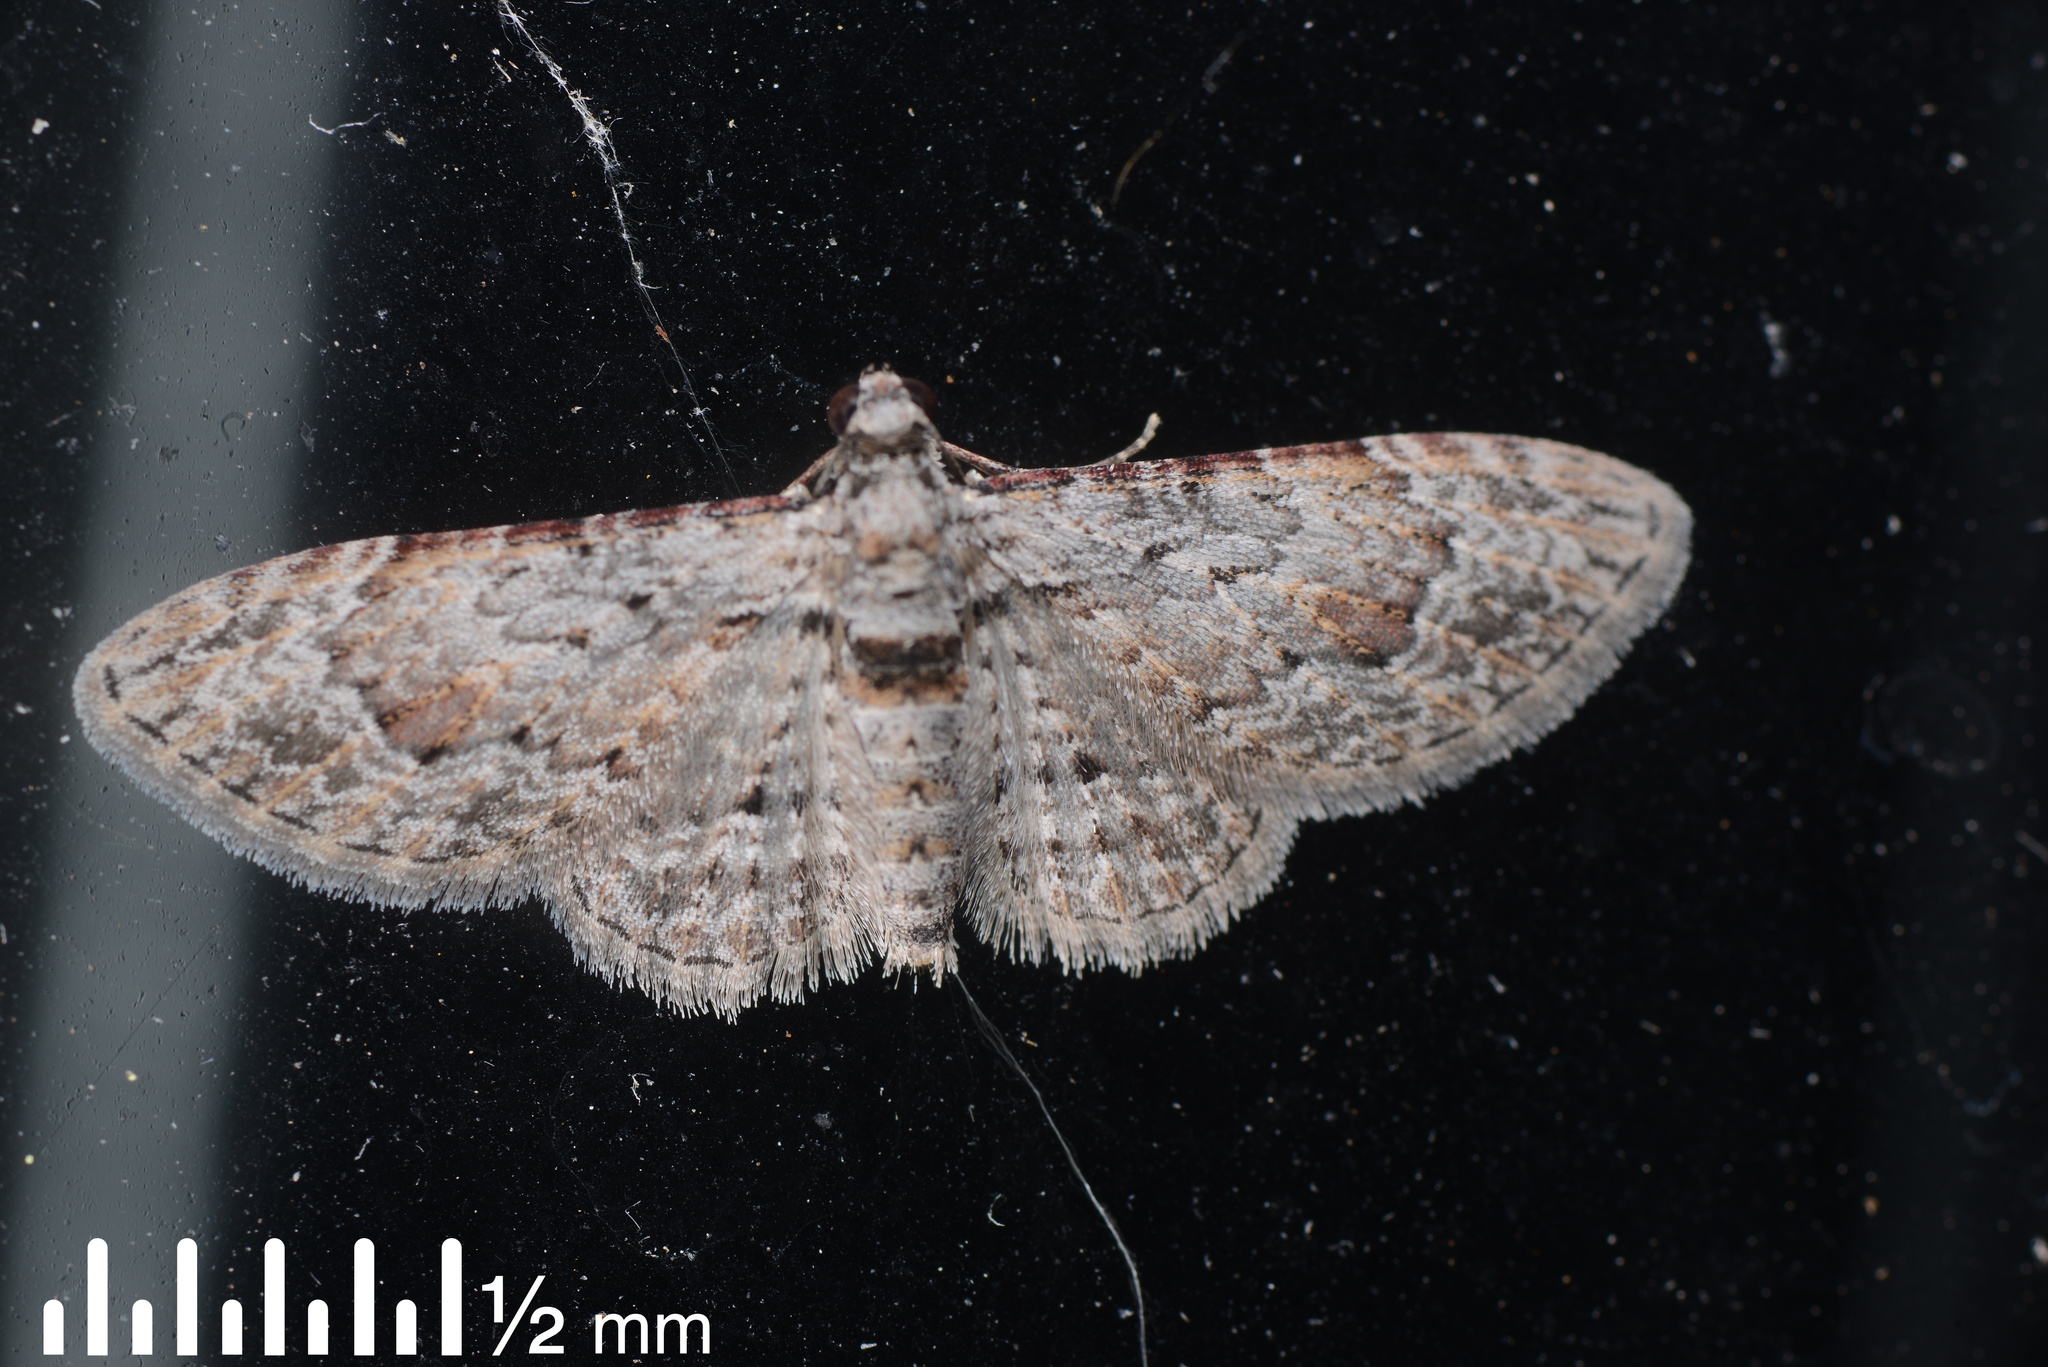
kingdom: Animalia
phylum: Arthropoda
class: Insecta
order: Lepidoptera
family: Geometridae
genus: Chloroclystis
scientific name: Chloroclystis insigillata
